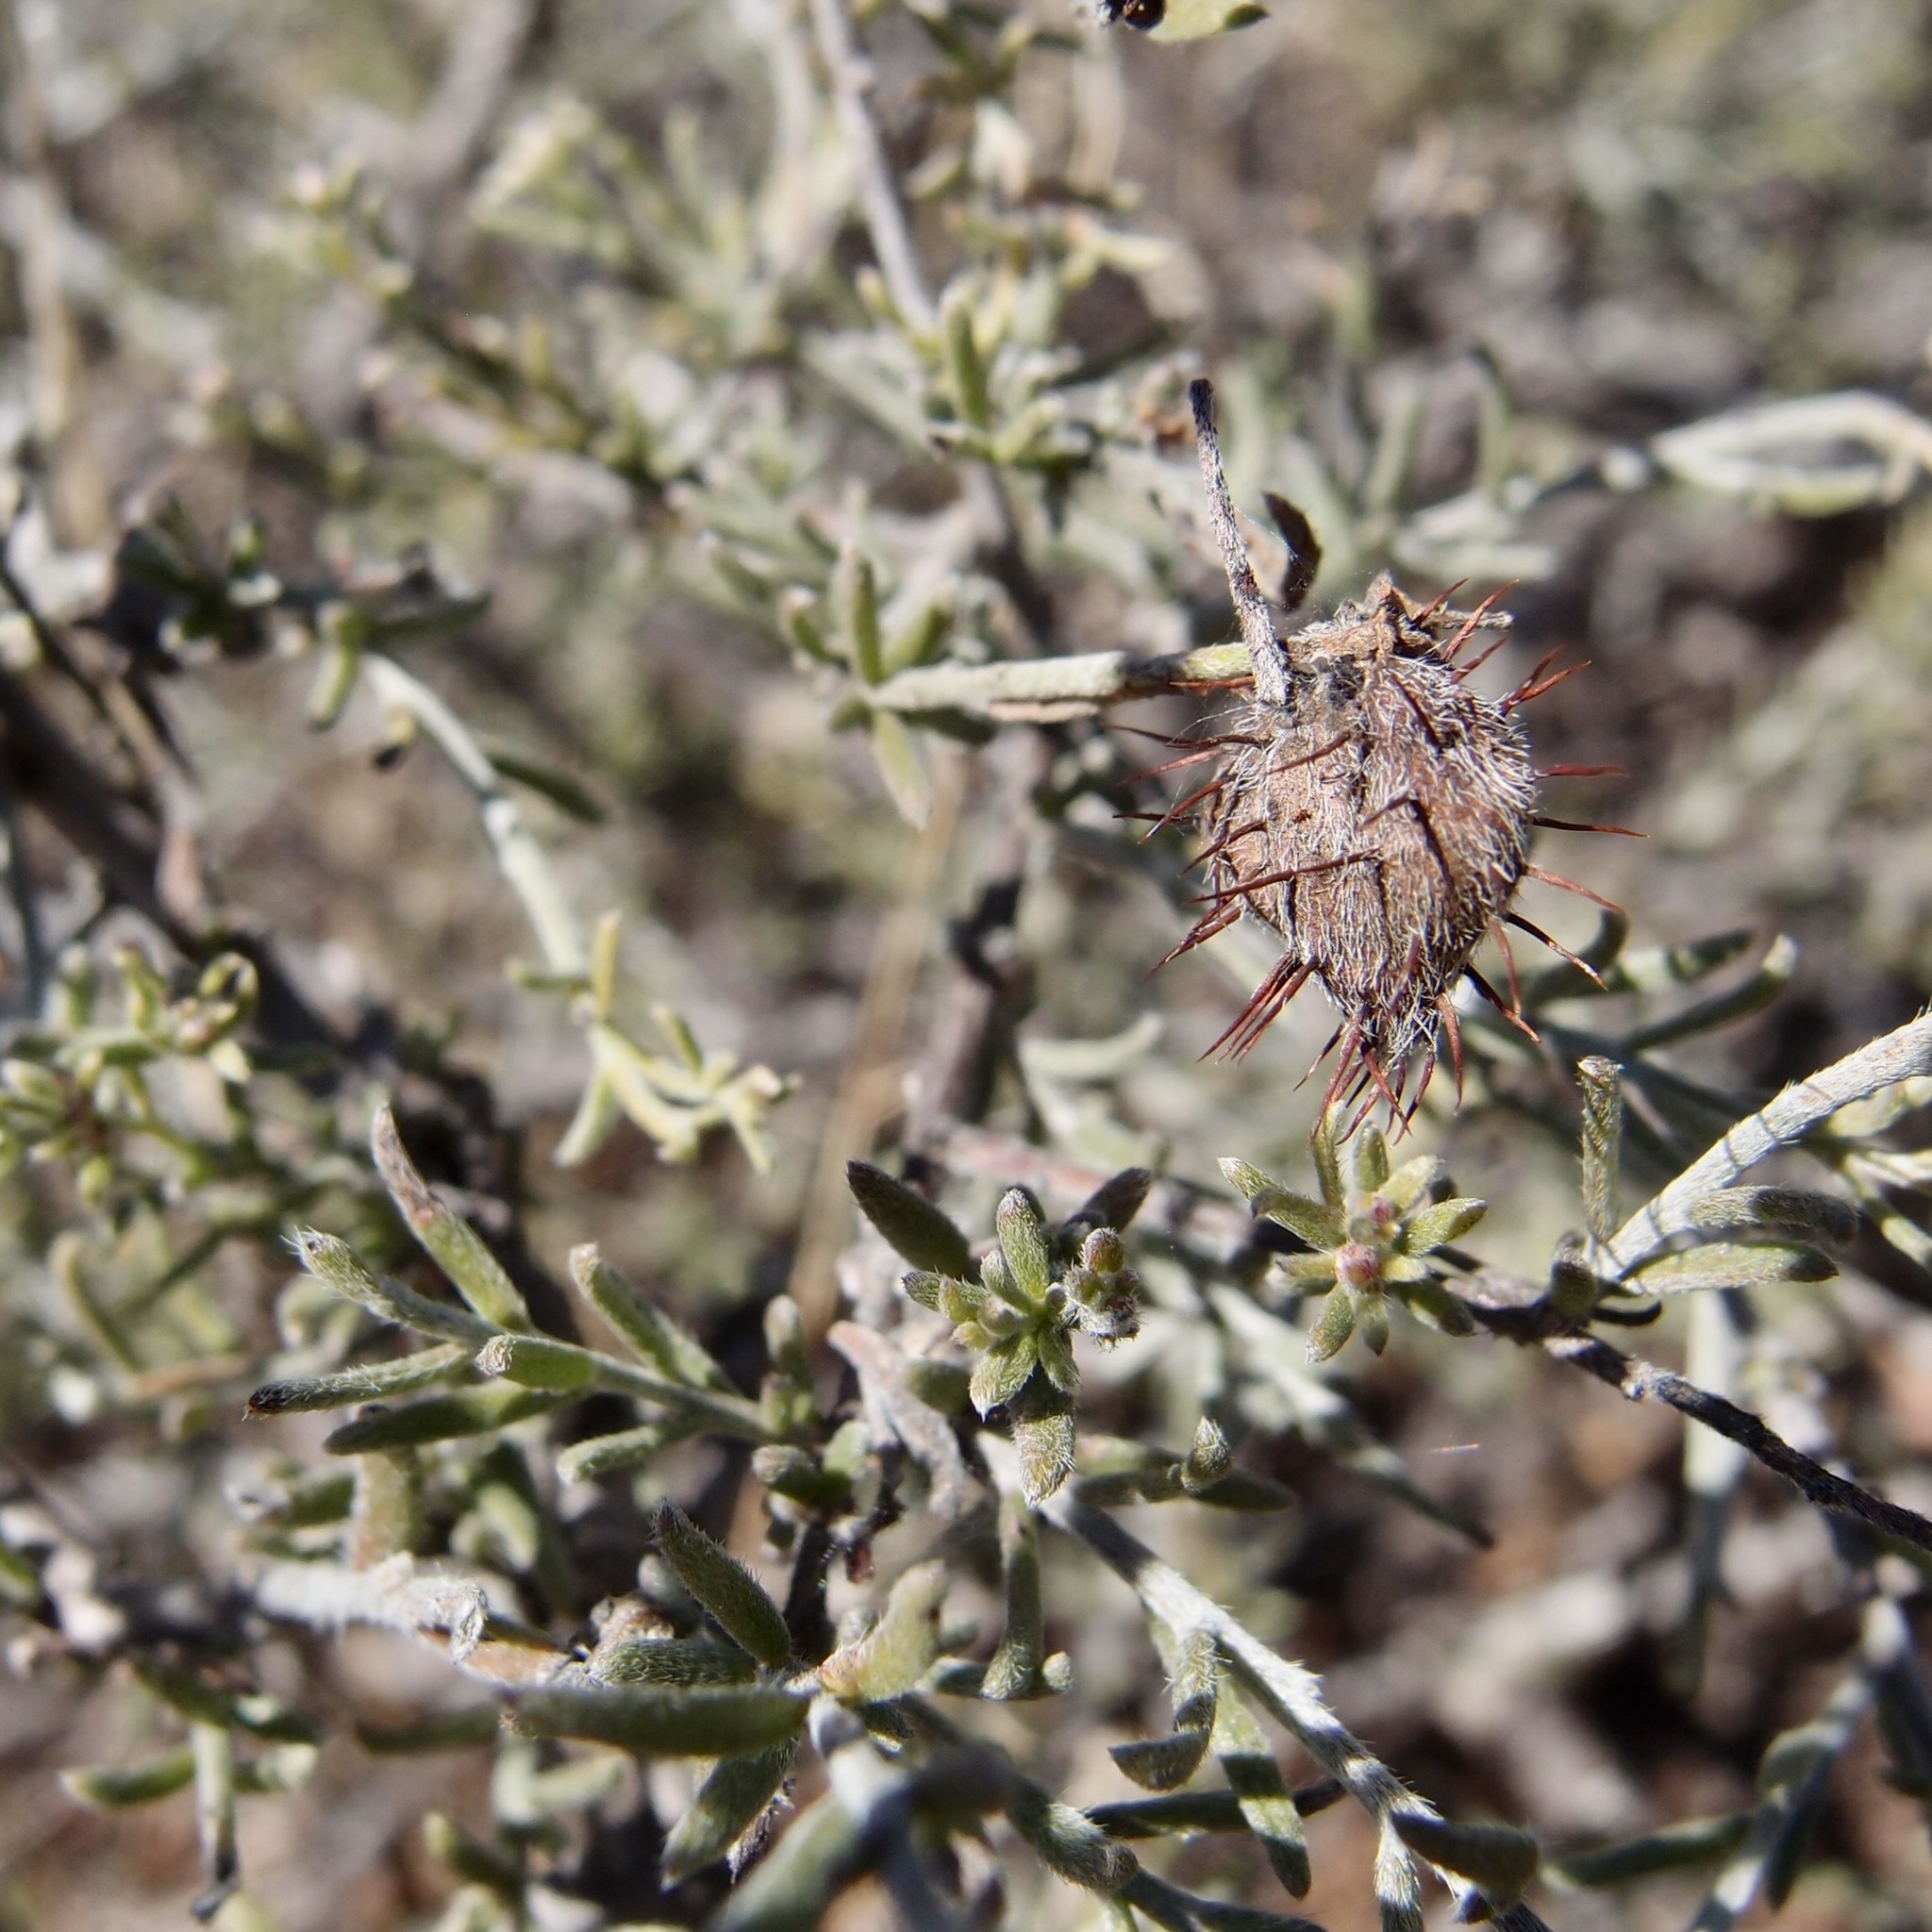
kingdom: Plantae
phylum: Tracheophyta
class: Magnoliopsida
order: Zygophyllales
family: Krameriaceae
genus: Krameria
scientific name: Krameria erecta
